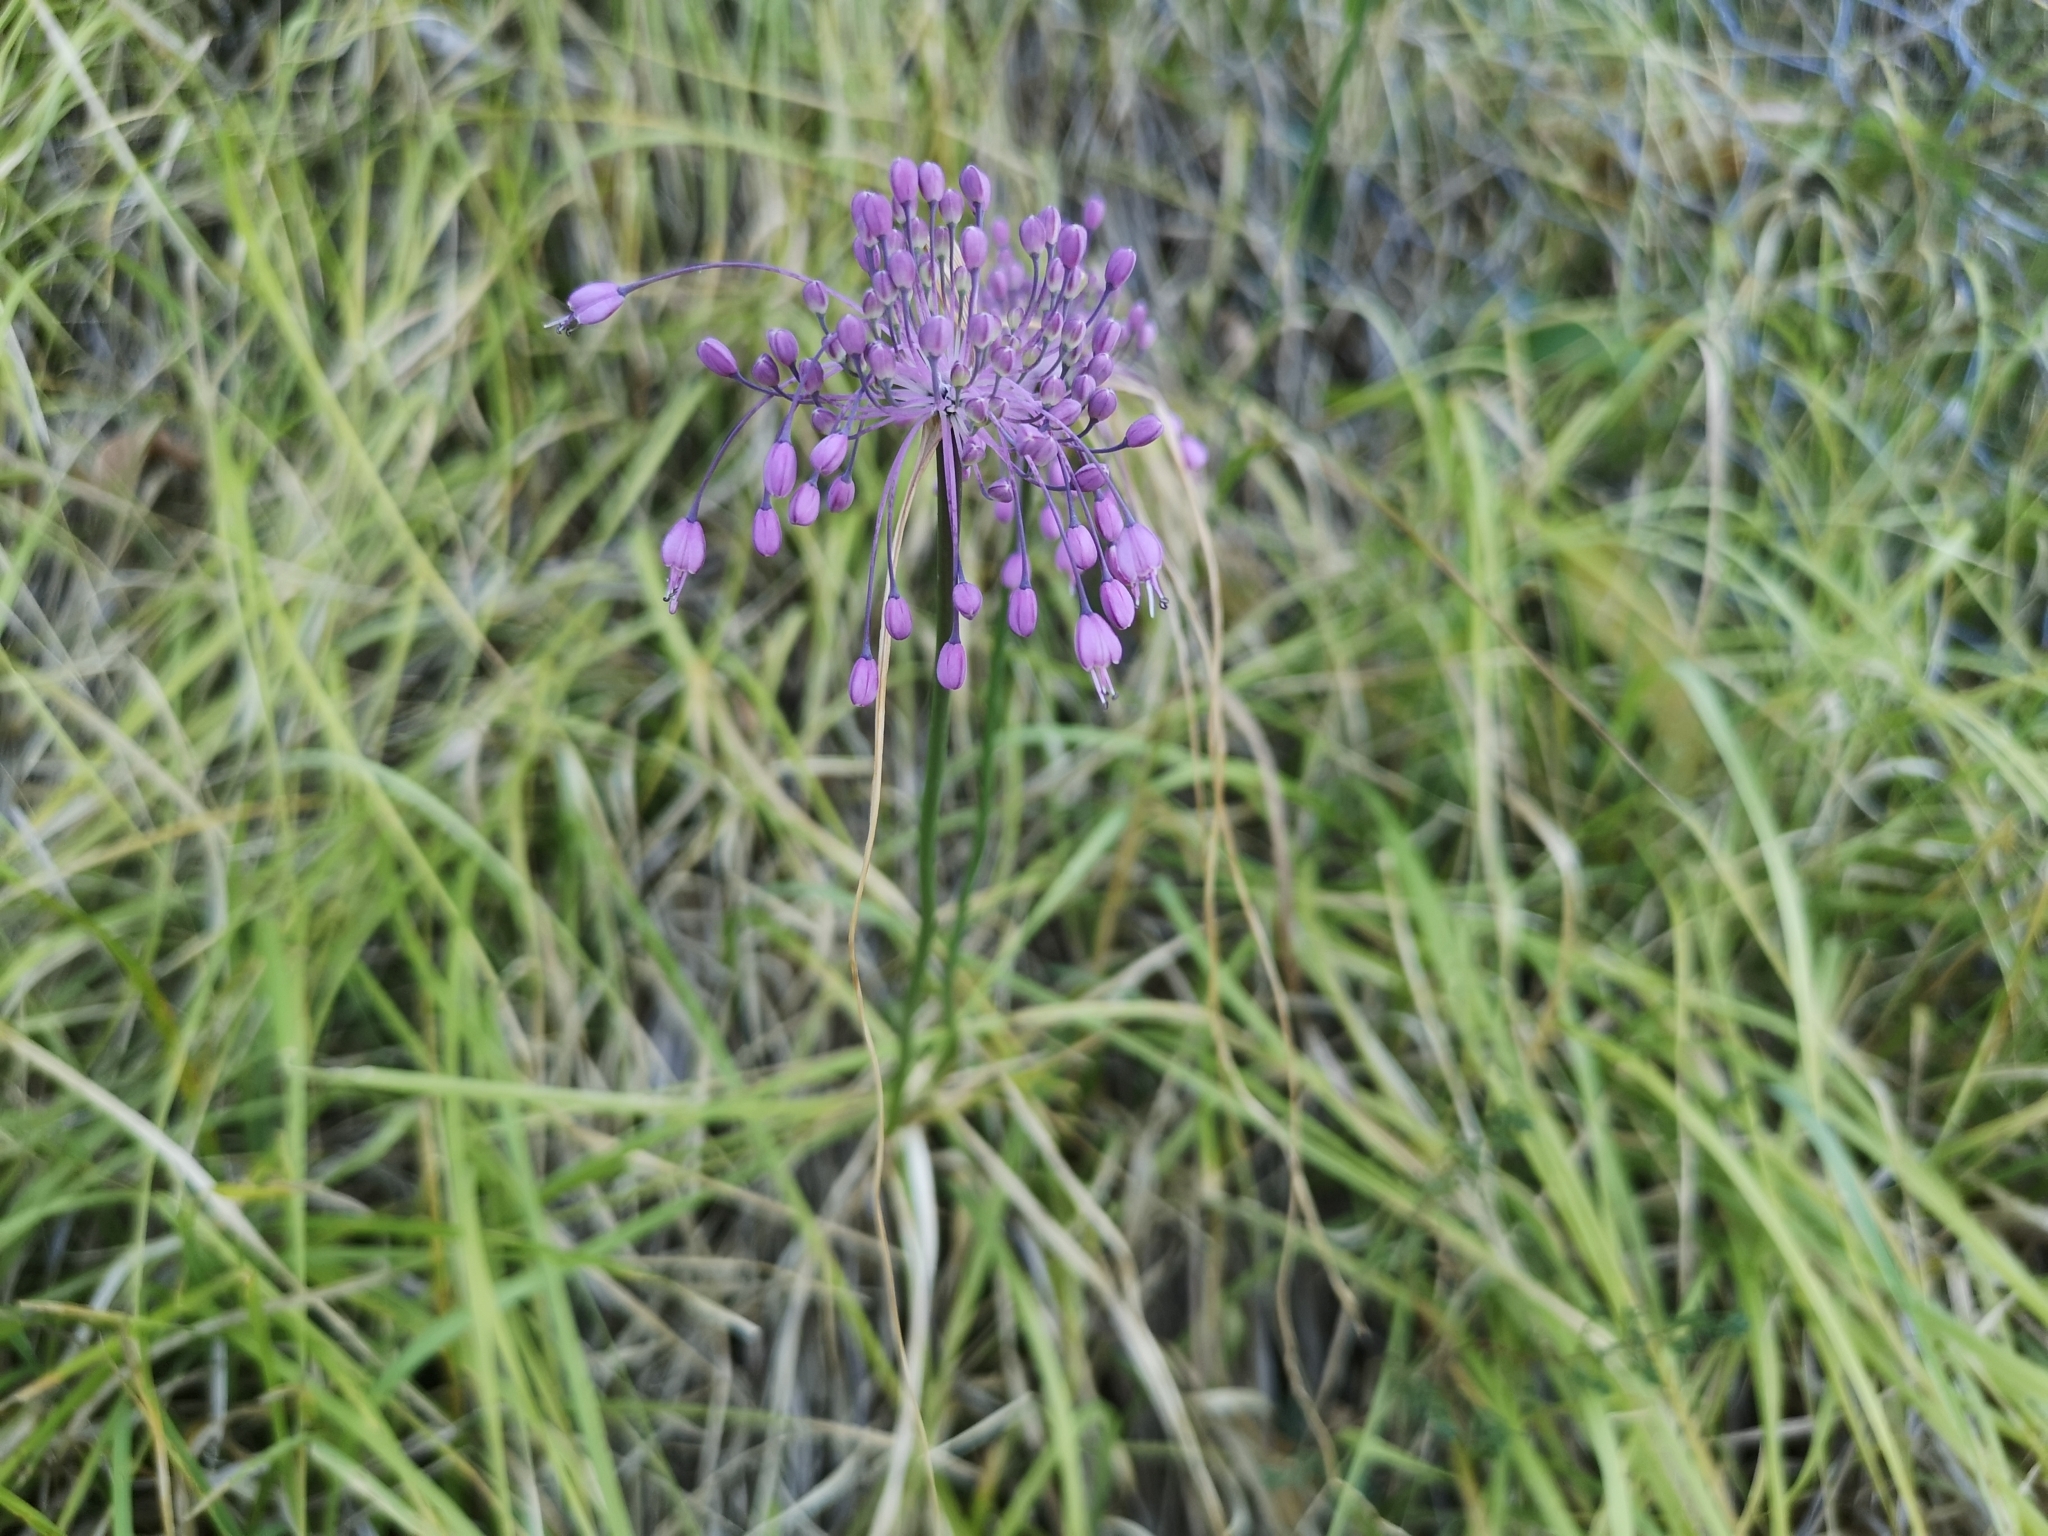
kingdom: Plantae
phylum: Tracheophyta
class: Liliopsida
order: Asparagales
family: Amaryllidaceae
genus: Allium
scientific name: Allium carinatum
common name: Keeled garlic
